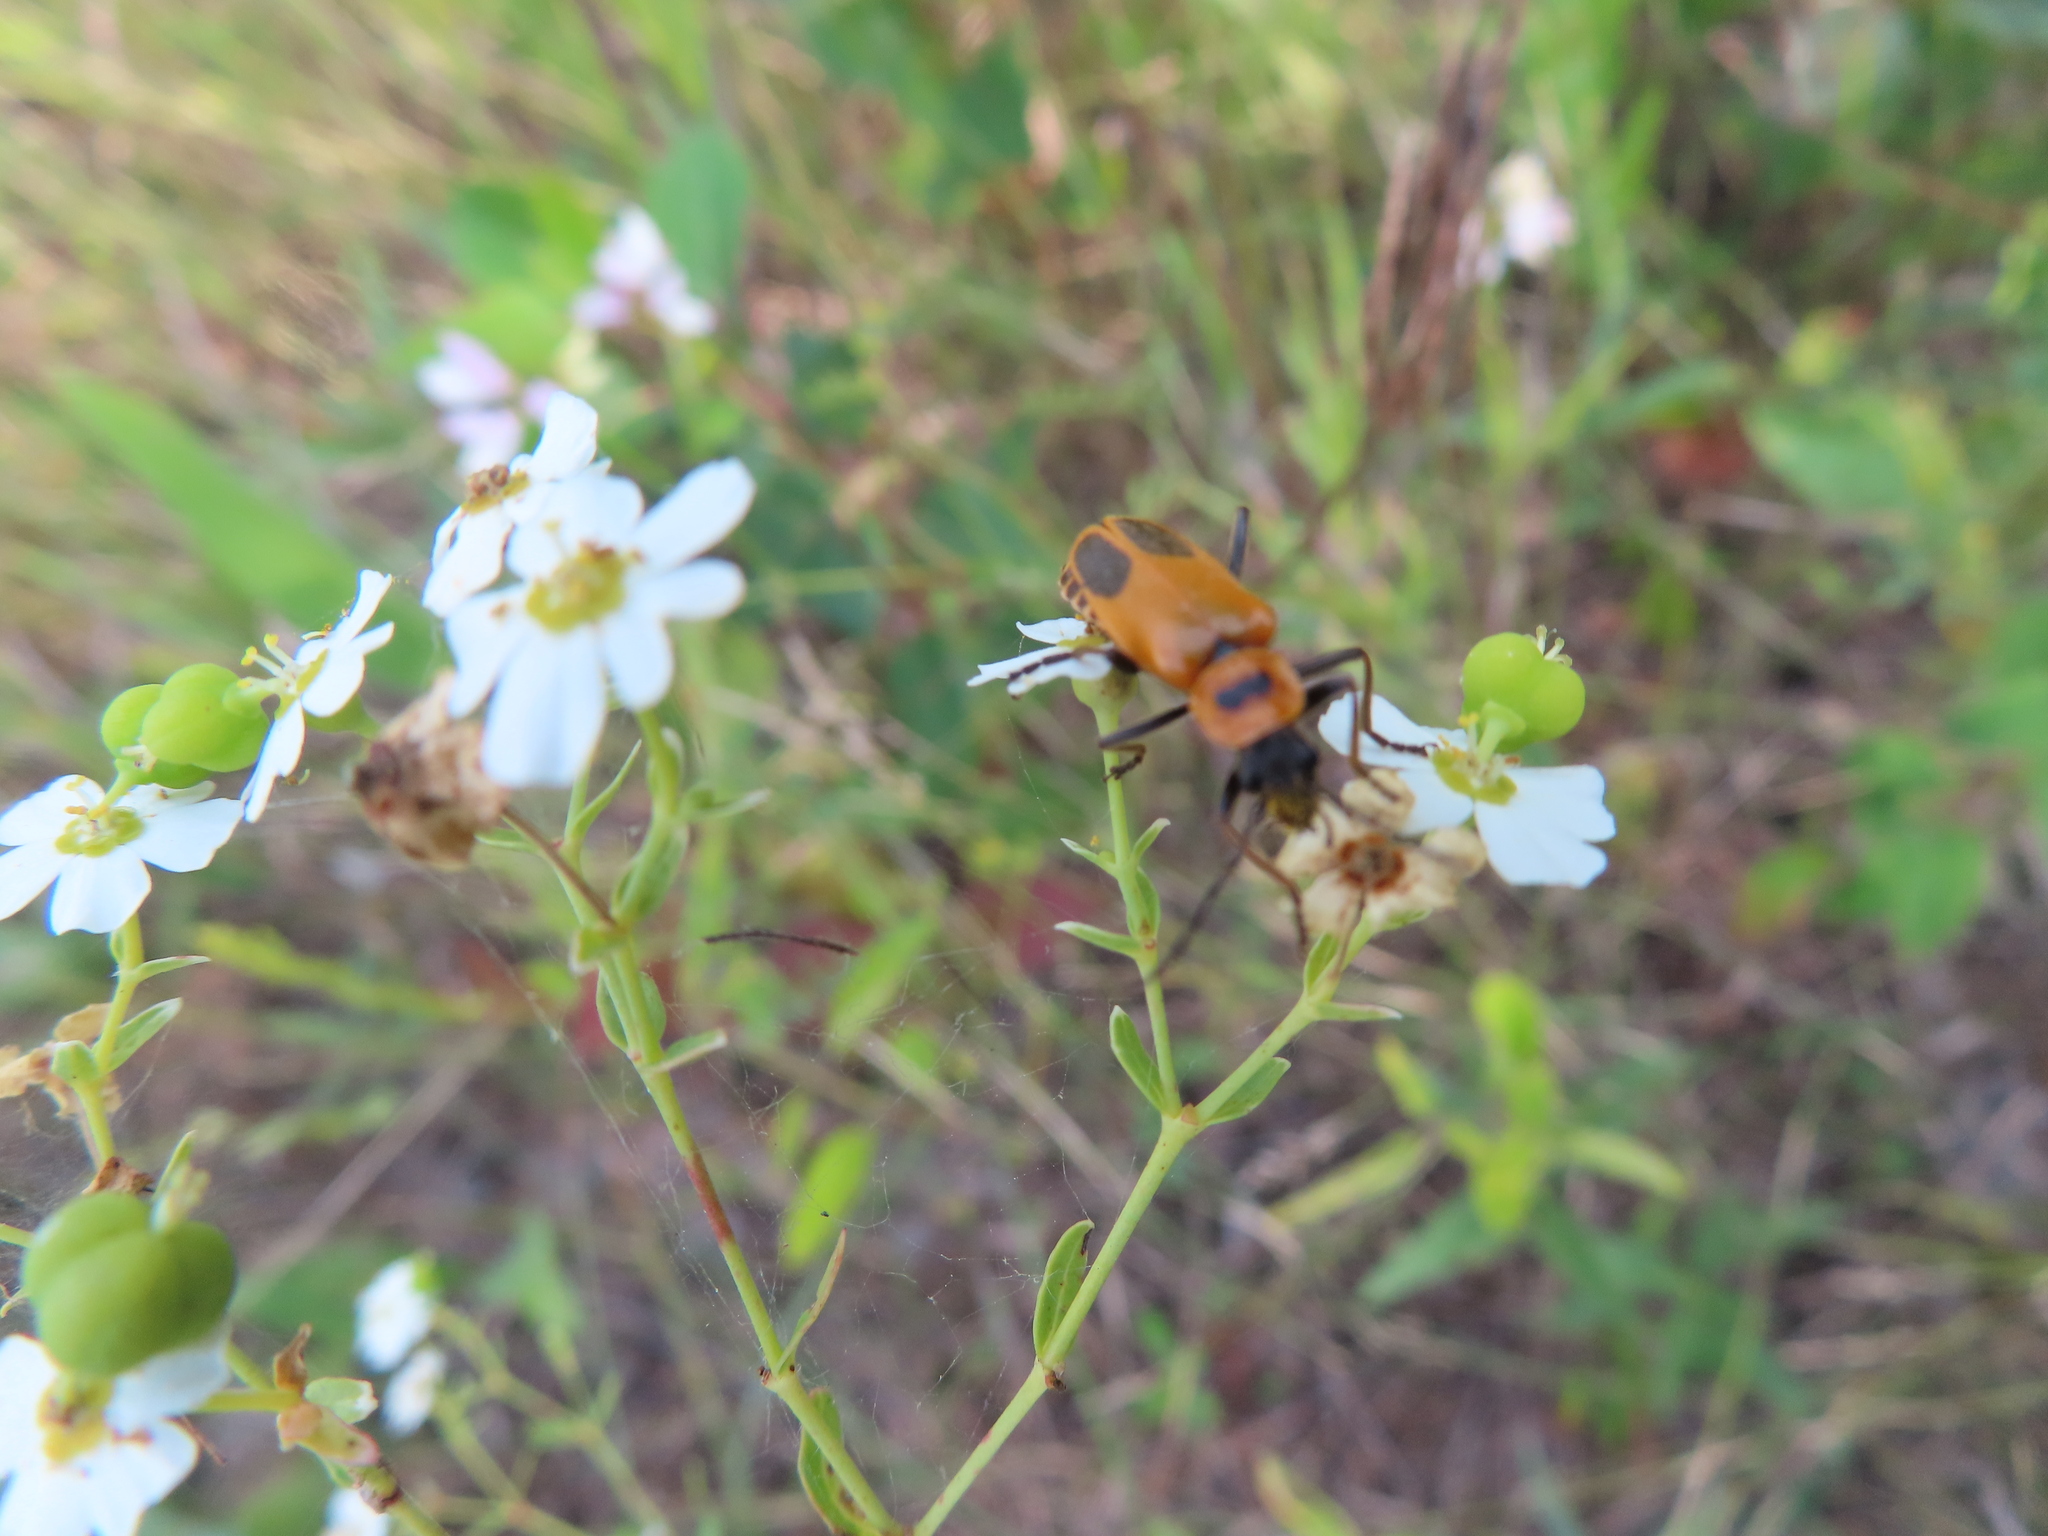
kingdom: Animalia
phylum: Arthropoda
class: Insecta
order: Coleoptera
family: Cantharidae
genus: Chauliognathus
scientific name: Chauliognathus pensylvanicus
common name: Goldenrod soldier beetle
